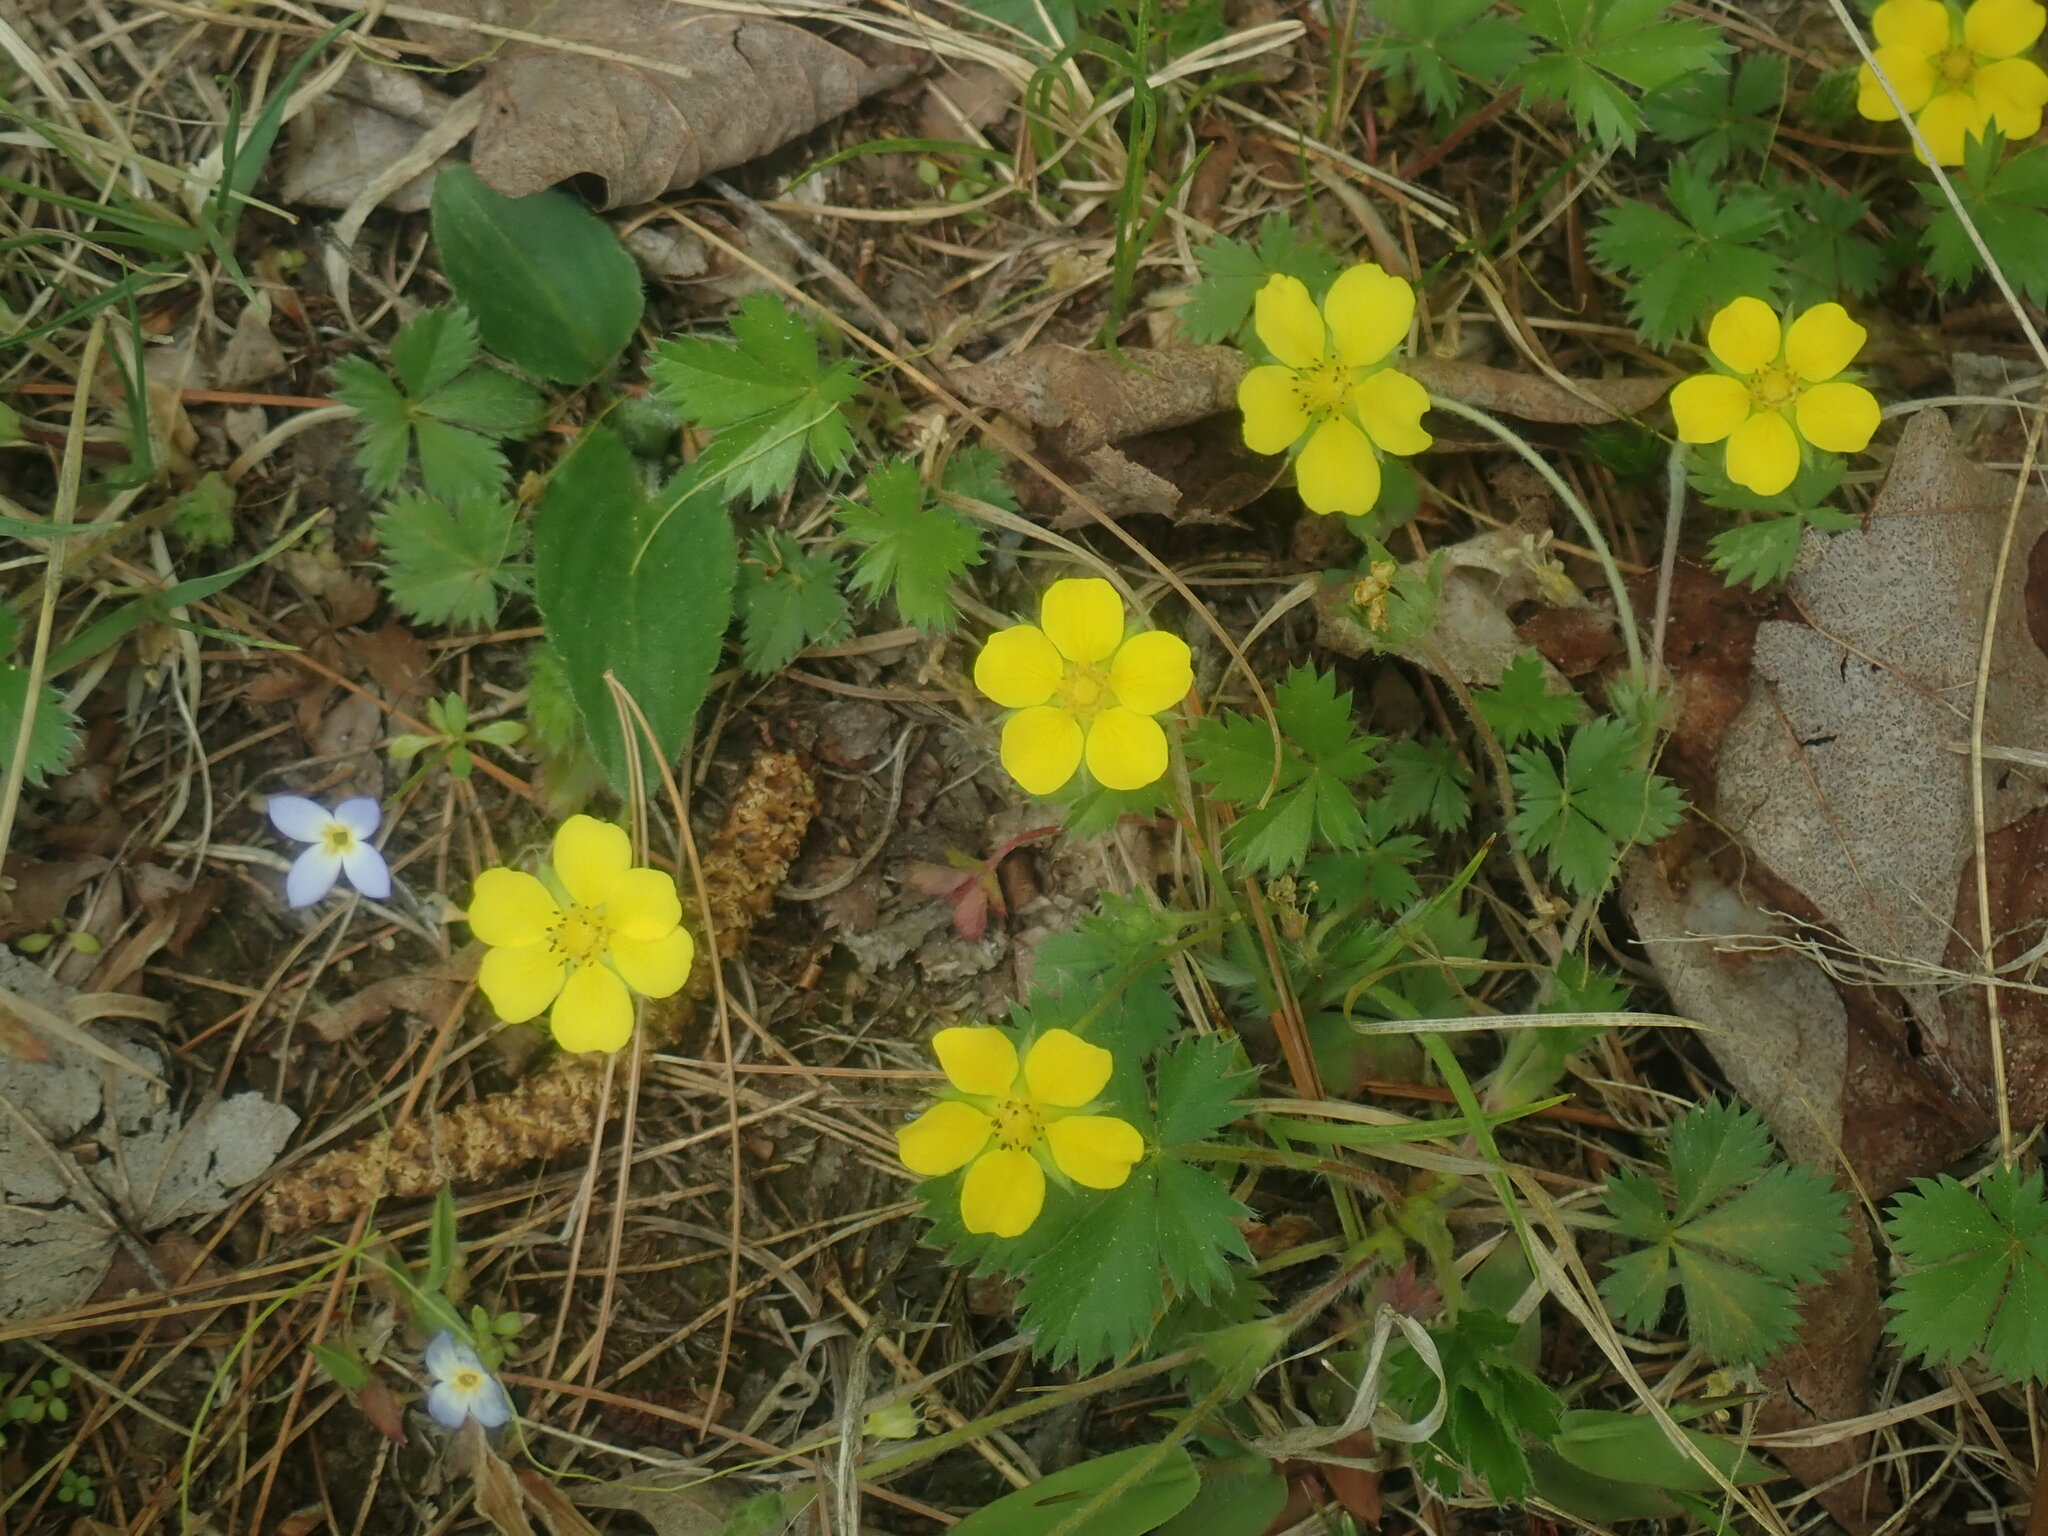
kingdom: Plantae
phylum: Tracheophyta
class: Magnoliopsida
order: Rosales
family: Rosaceae
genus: Potentilla
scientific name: Potentilla canadensis
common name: Canada cinquefoil
